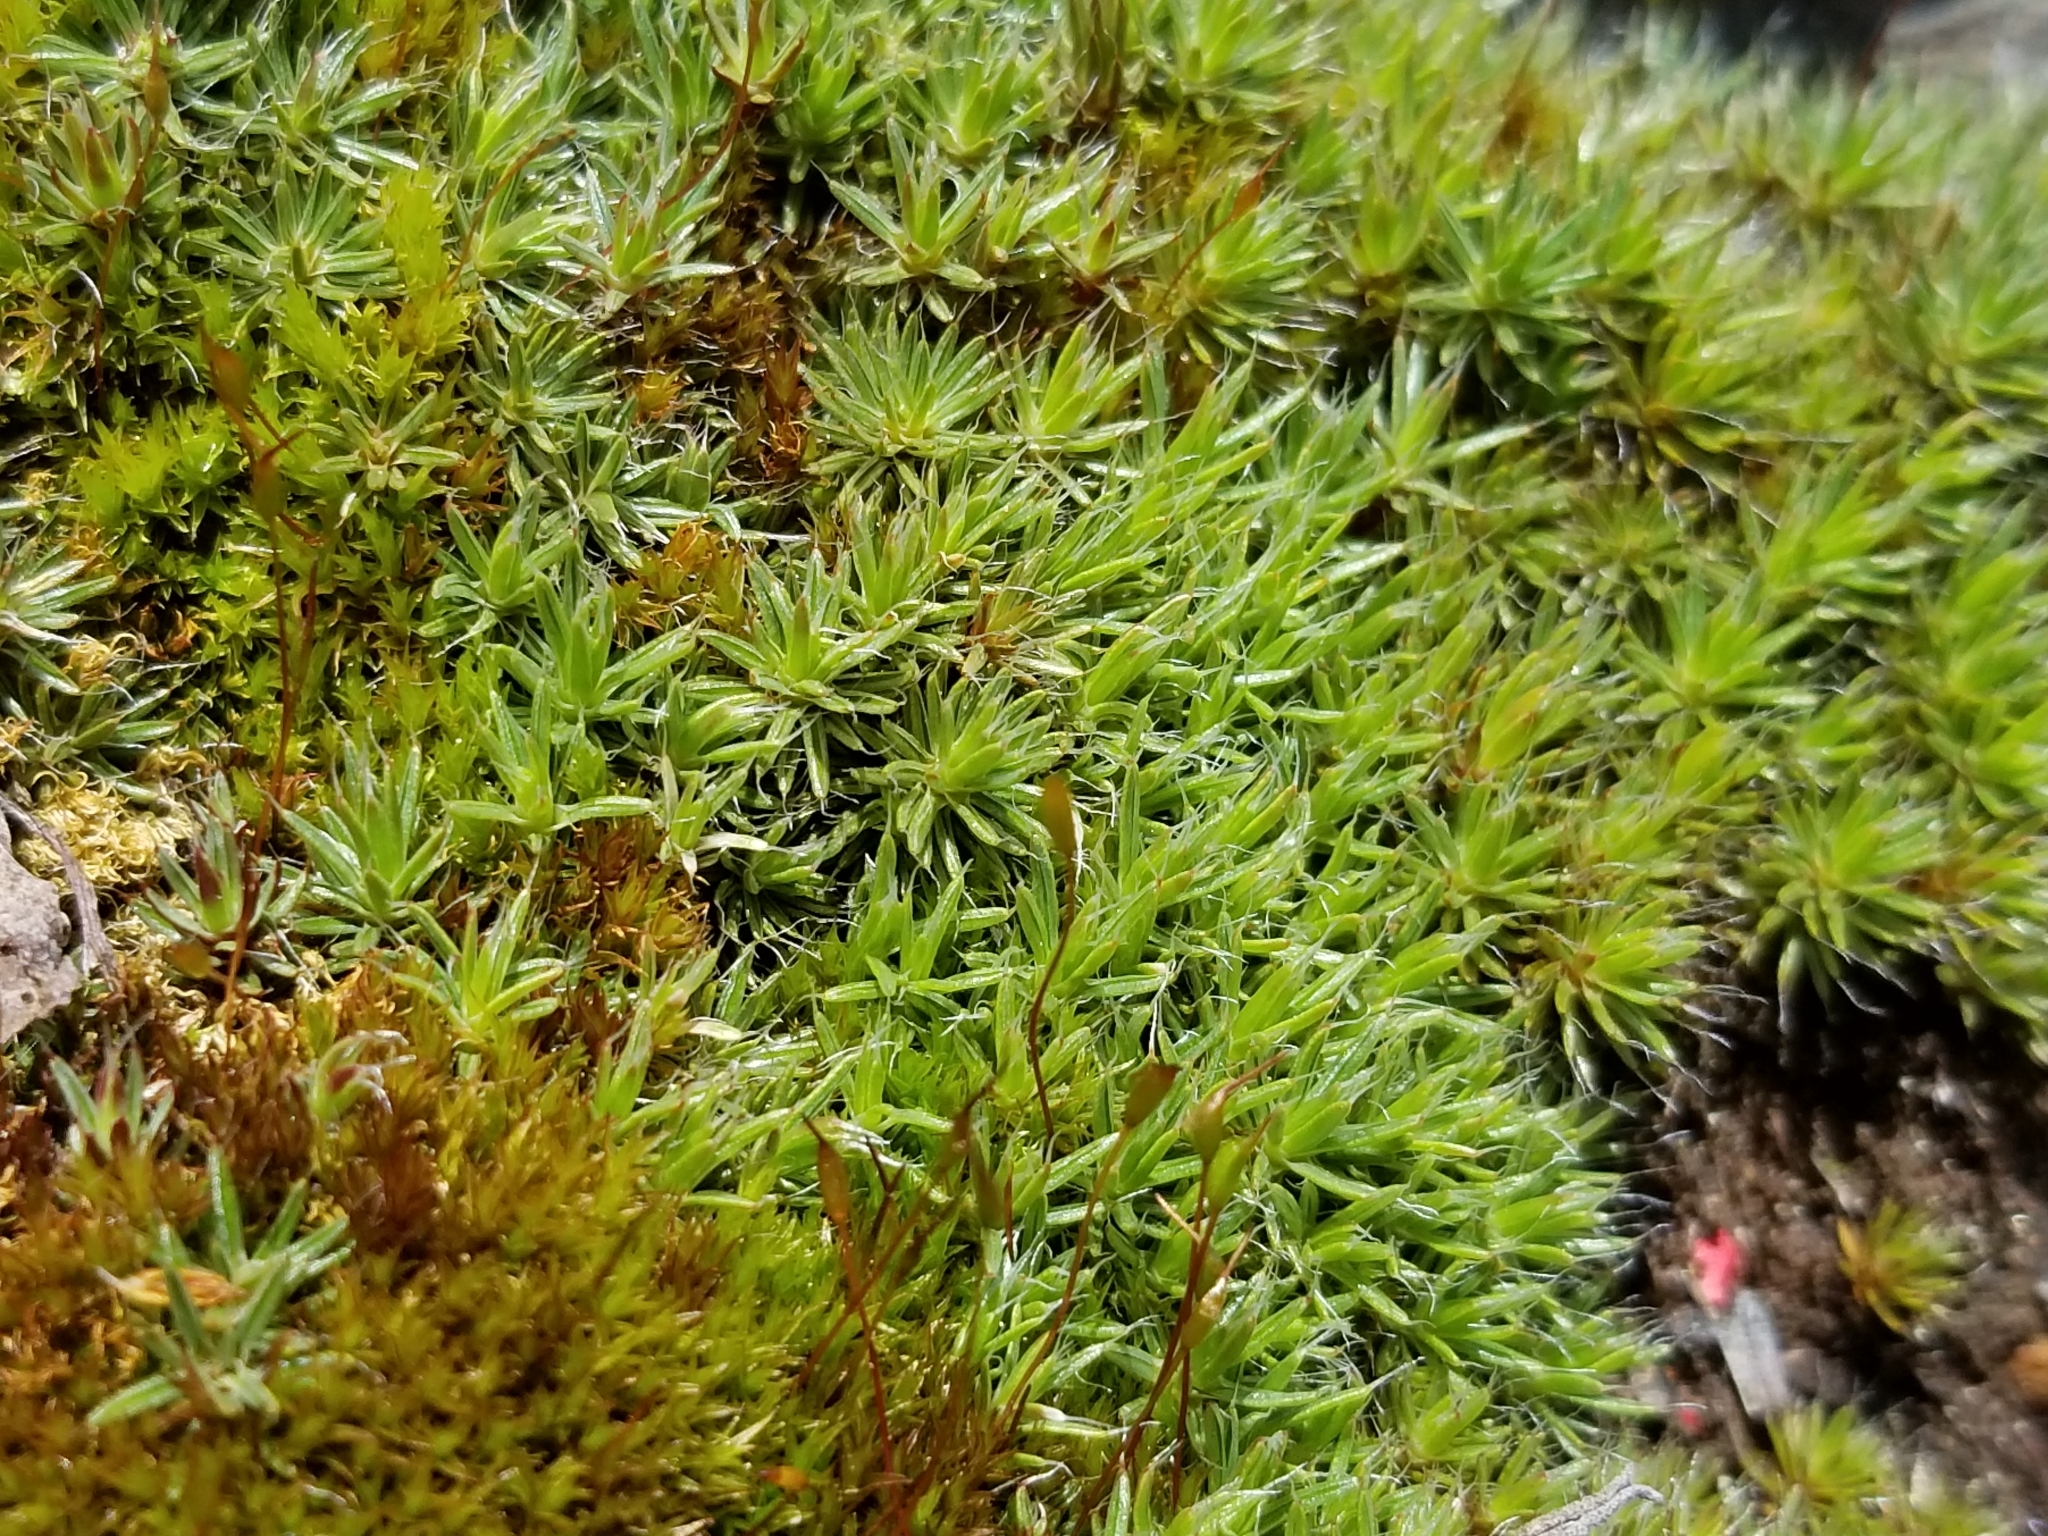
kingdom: Plantae
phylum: Bryophyta
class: Polytrichopsida
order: Polytrichales
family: Polytrichaceae
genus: Polytrichum
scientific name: Polytrichum piliferum
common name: Bristly haircap
